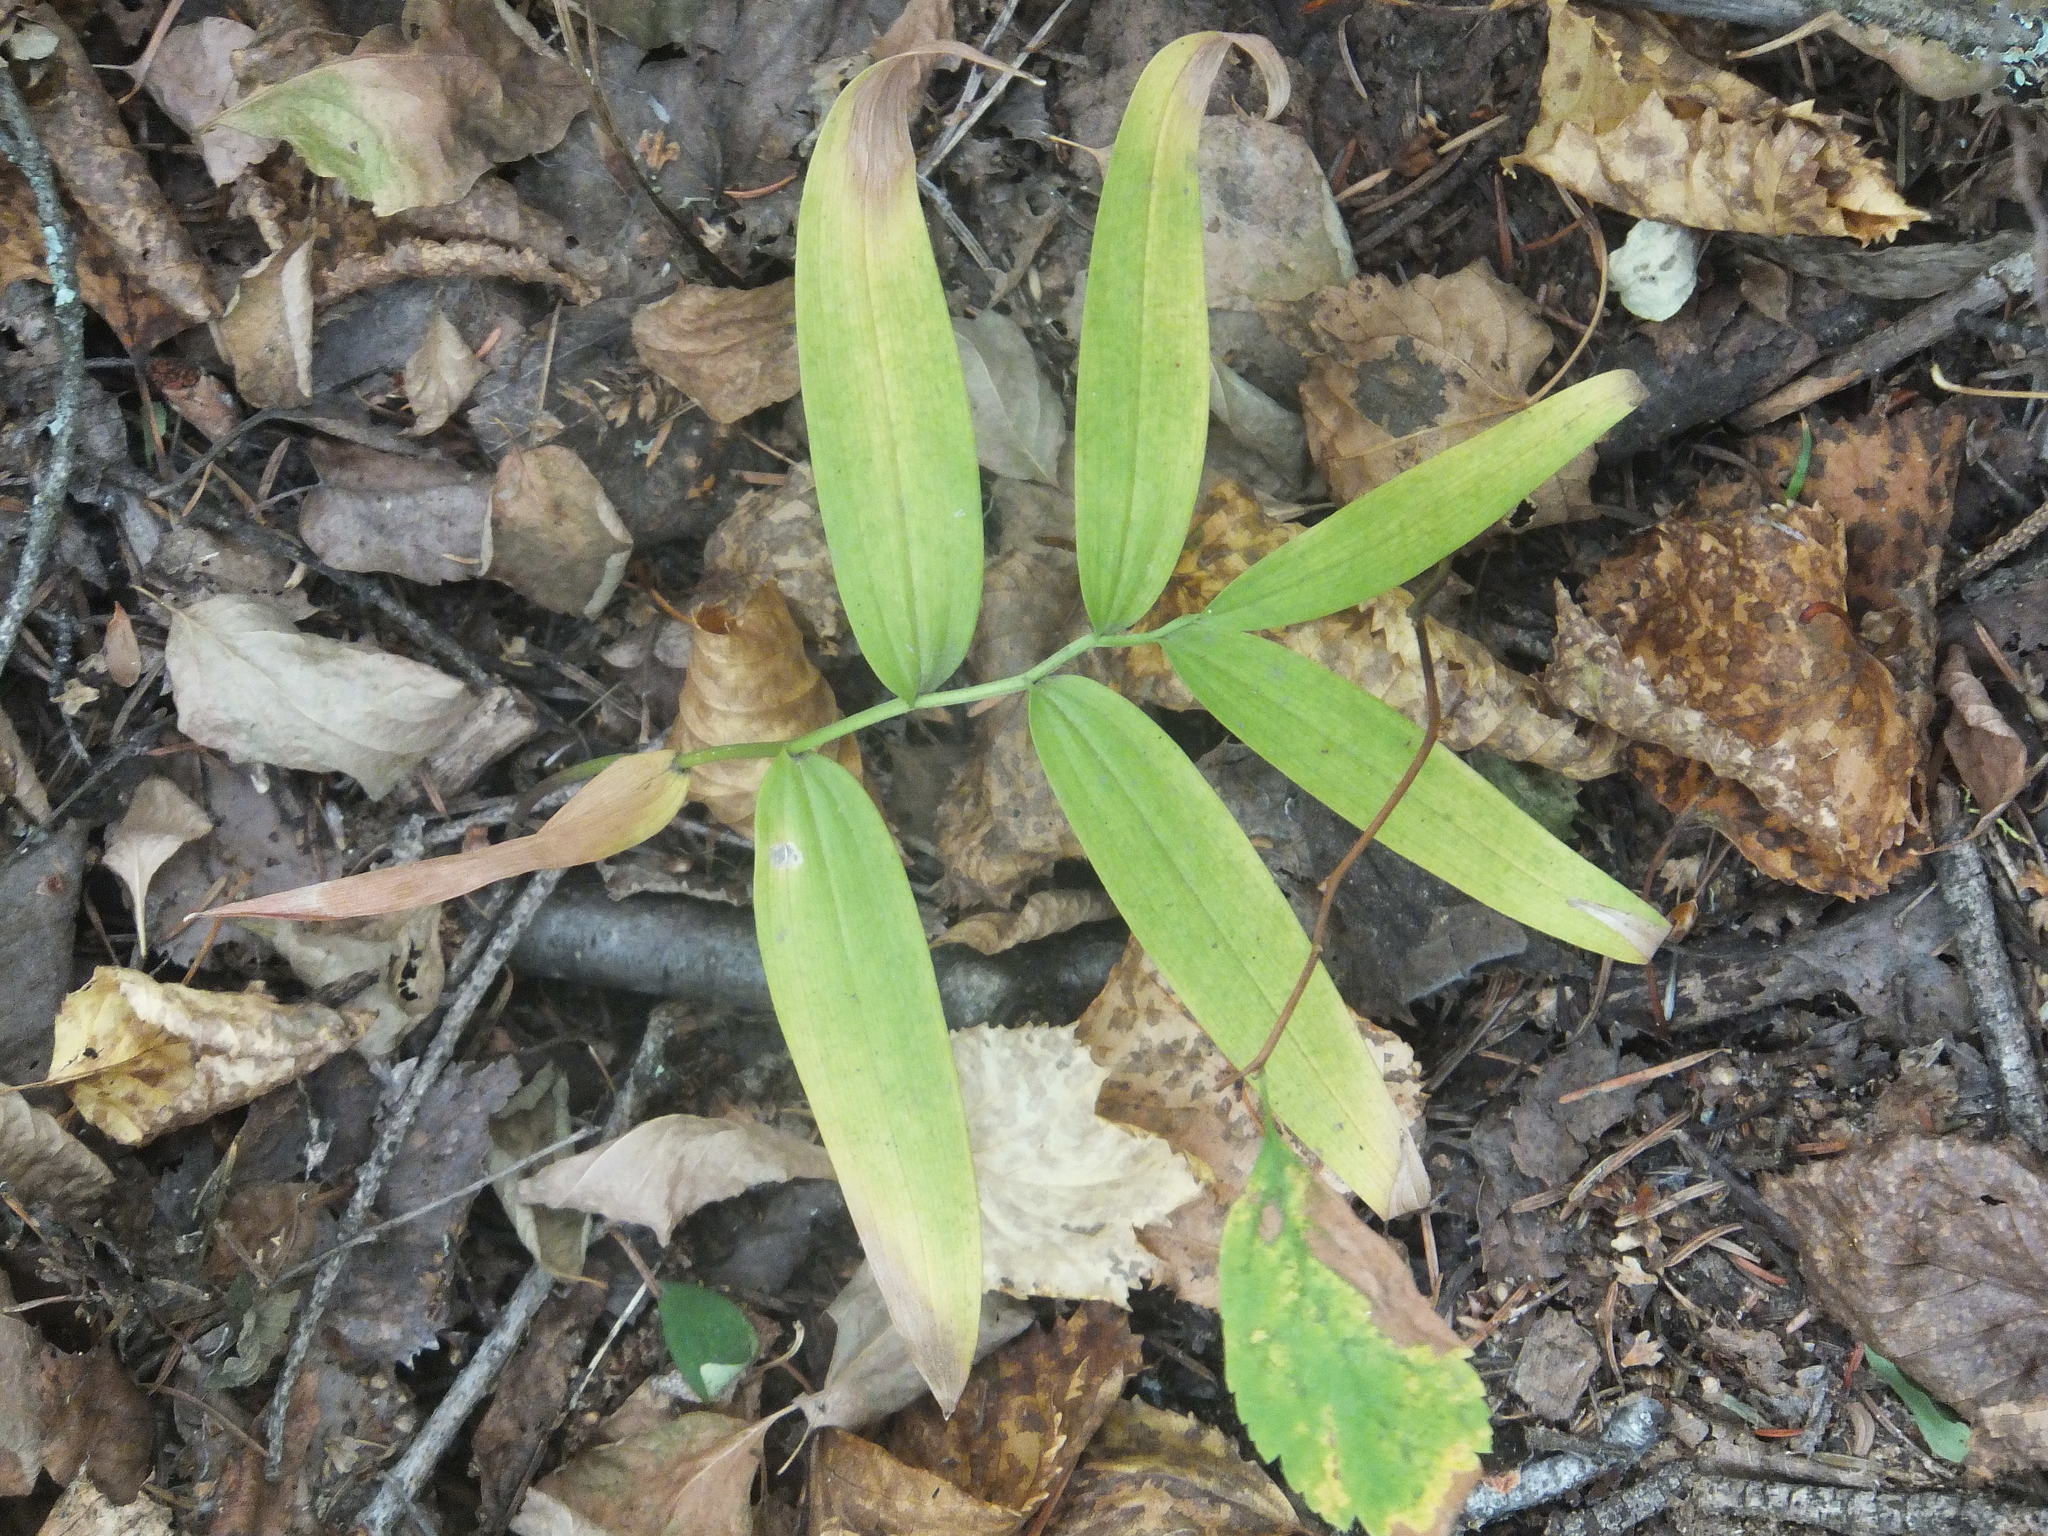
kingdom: Plantae
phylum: Tracheophyta
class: Liliopsida
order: Asparagales
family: Asparagaceae
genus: Maianthemum
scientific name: Maianthemum stellatum
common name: Little false solomon's seal
